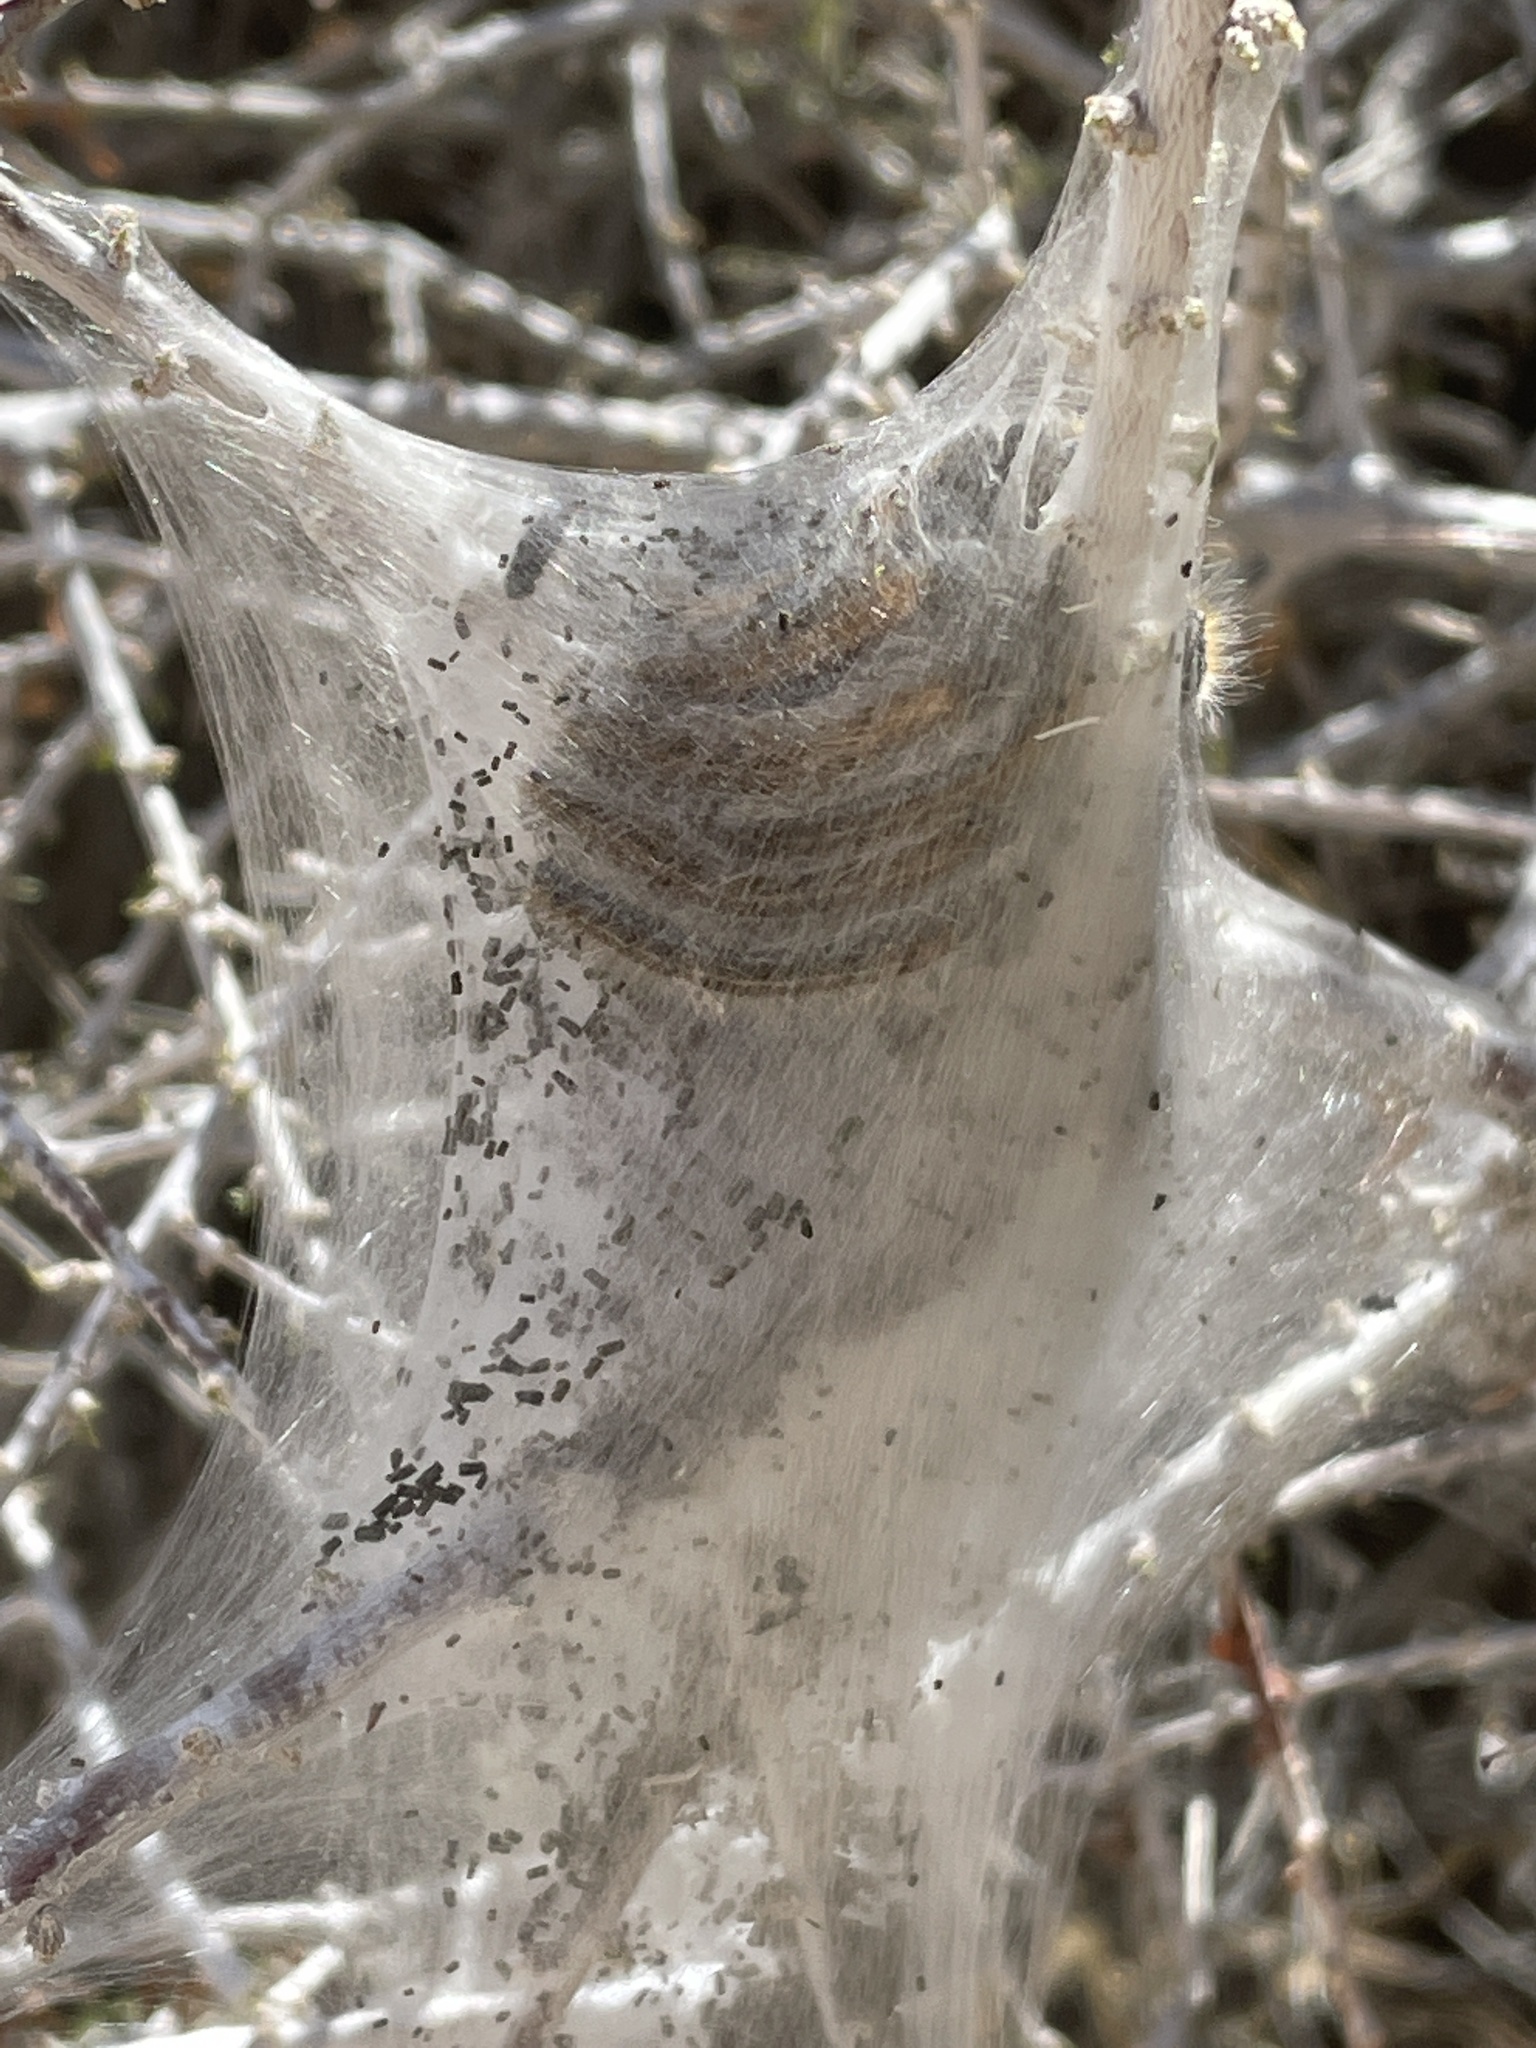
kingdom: Animalia
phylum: Arthropoda
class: Insecta
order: Lepidoptera
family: Lasiocampidae
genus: Malacosoma
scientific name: Malacosoma californica
